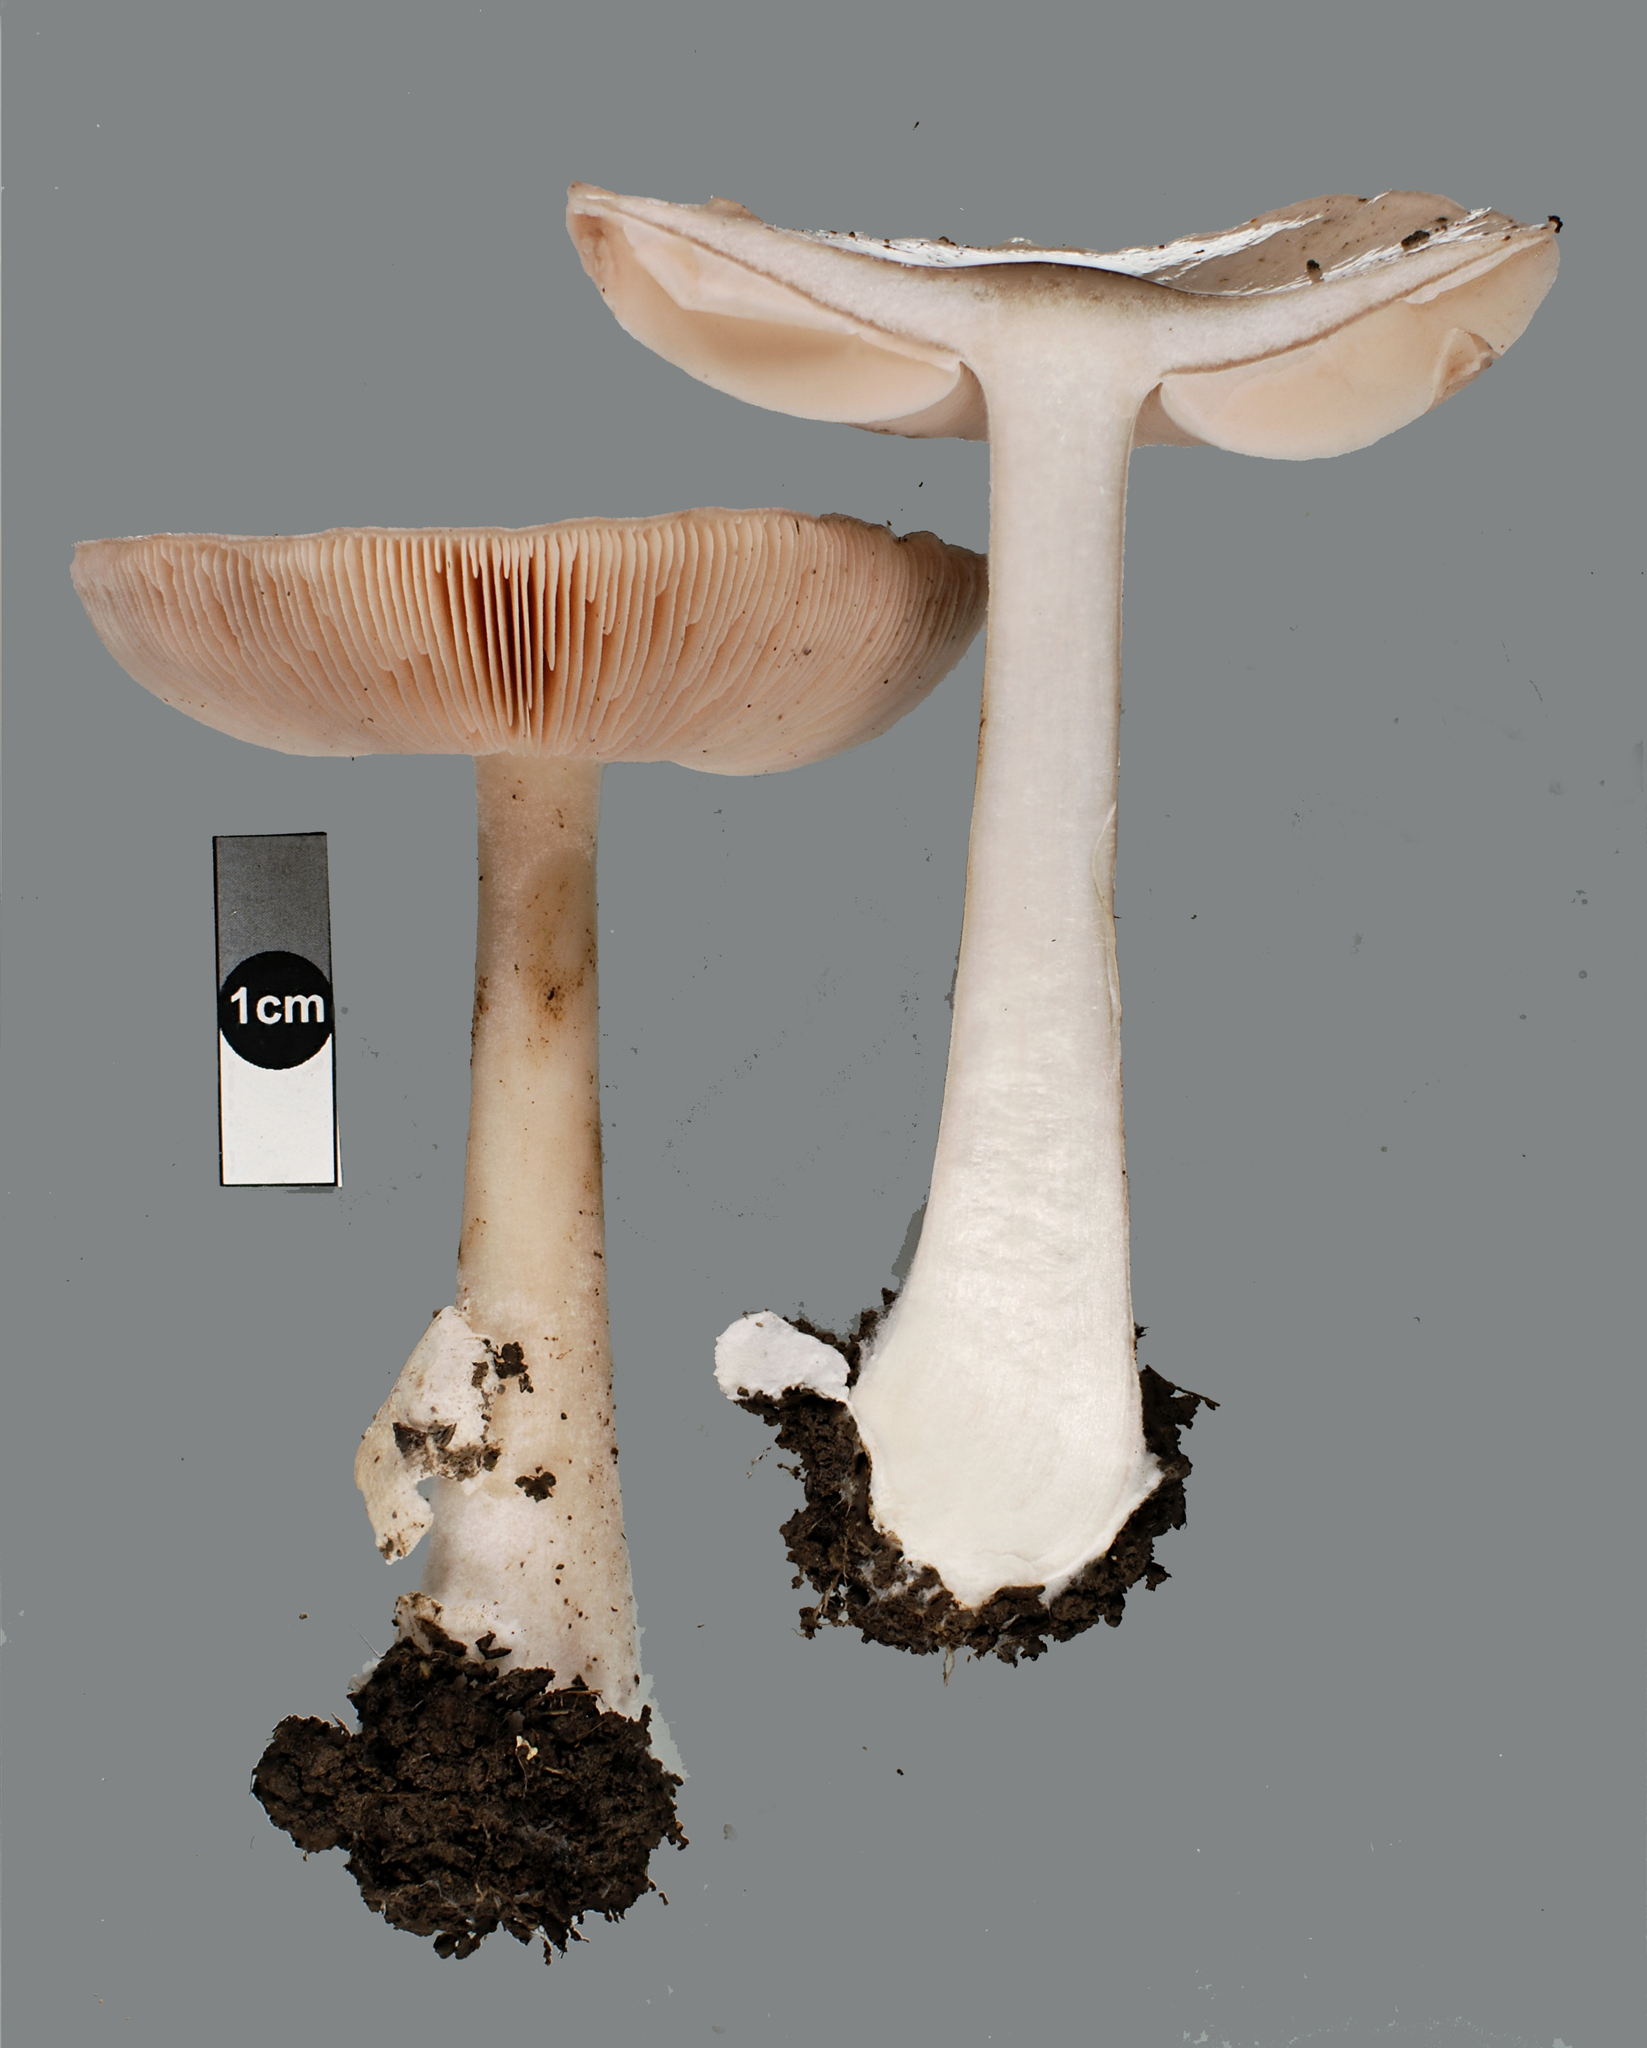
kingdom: Fungi
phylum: Basidiomycota
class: Agaricomycetes
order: Agaricales
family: Pluteaceae
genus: Volvopluteus
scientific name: Volvopluteus gloiocephalus
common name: Stubble rosegill
